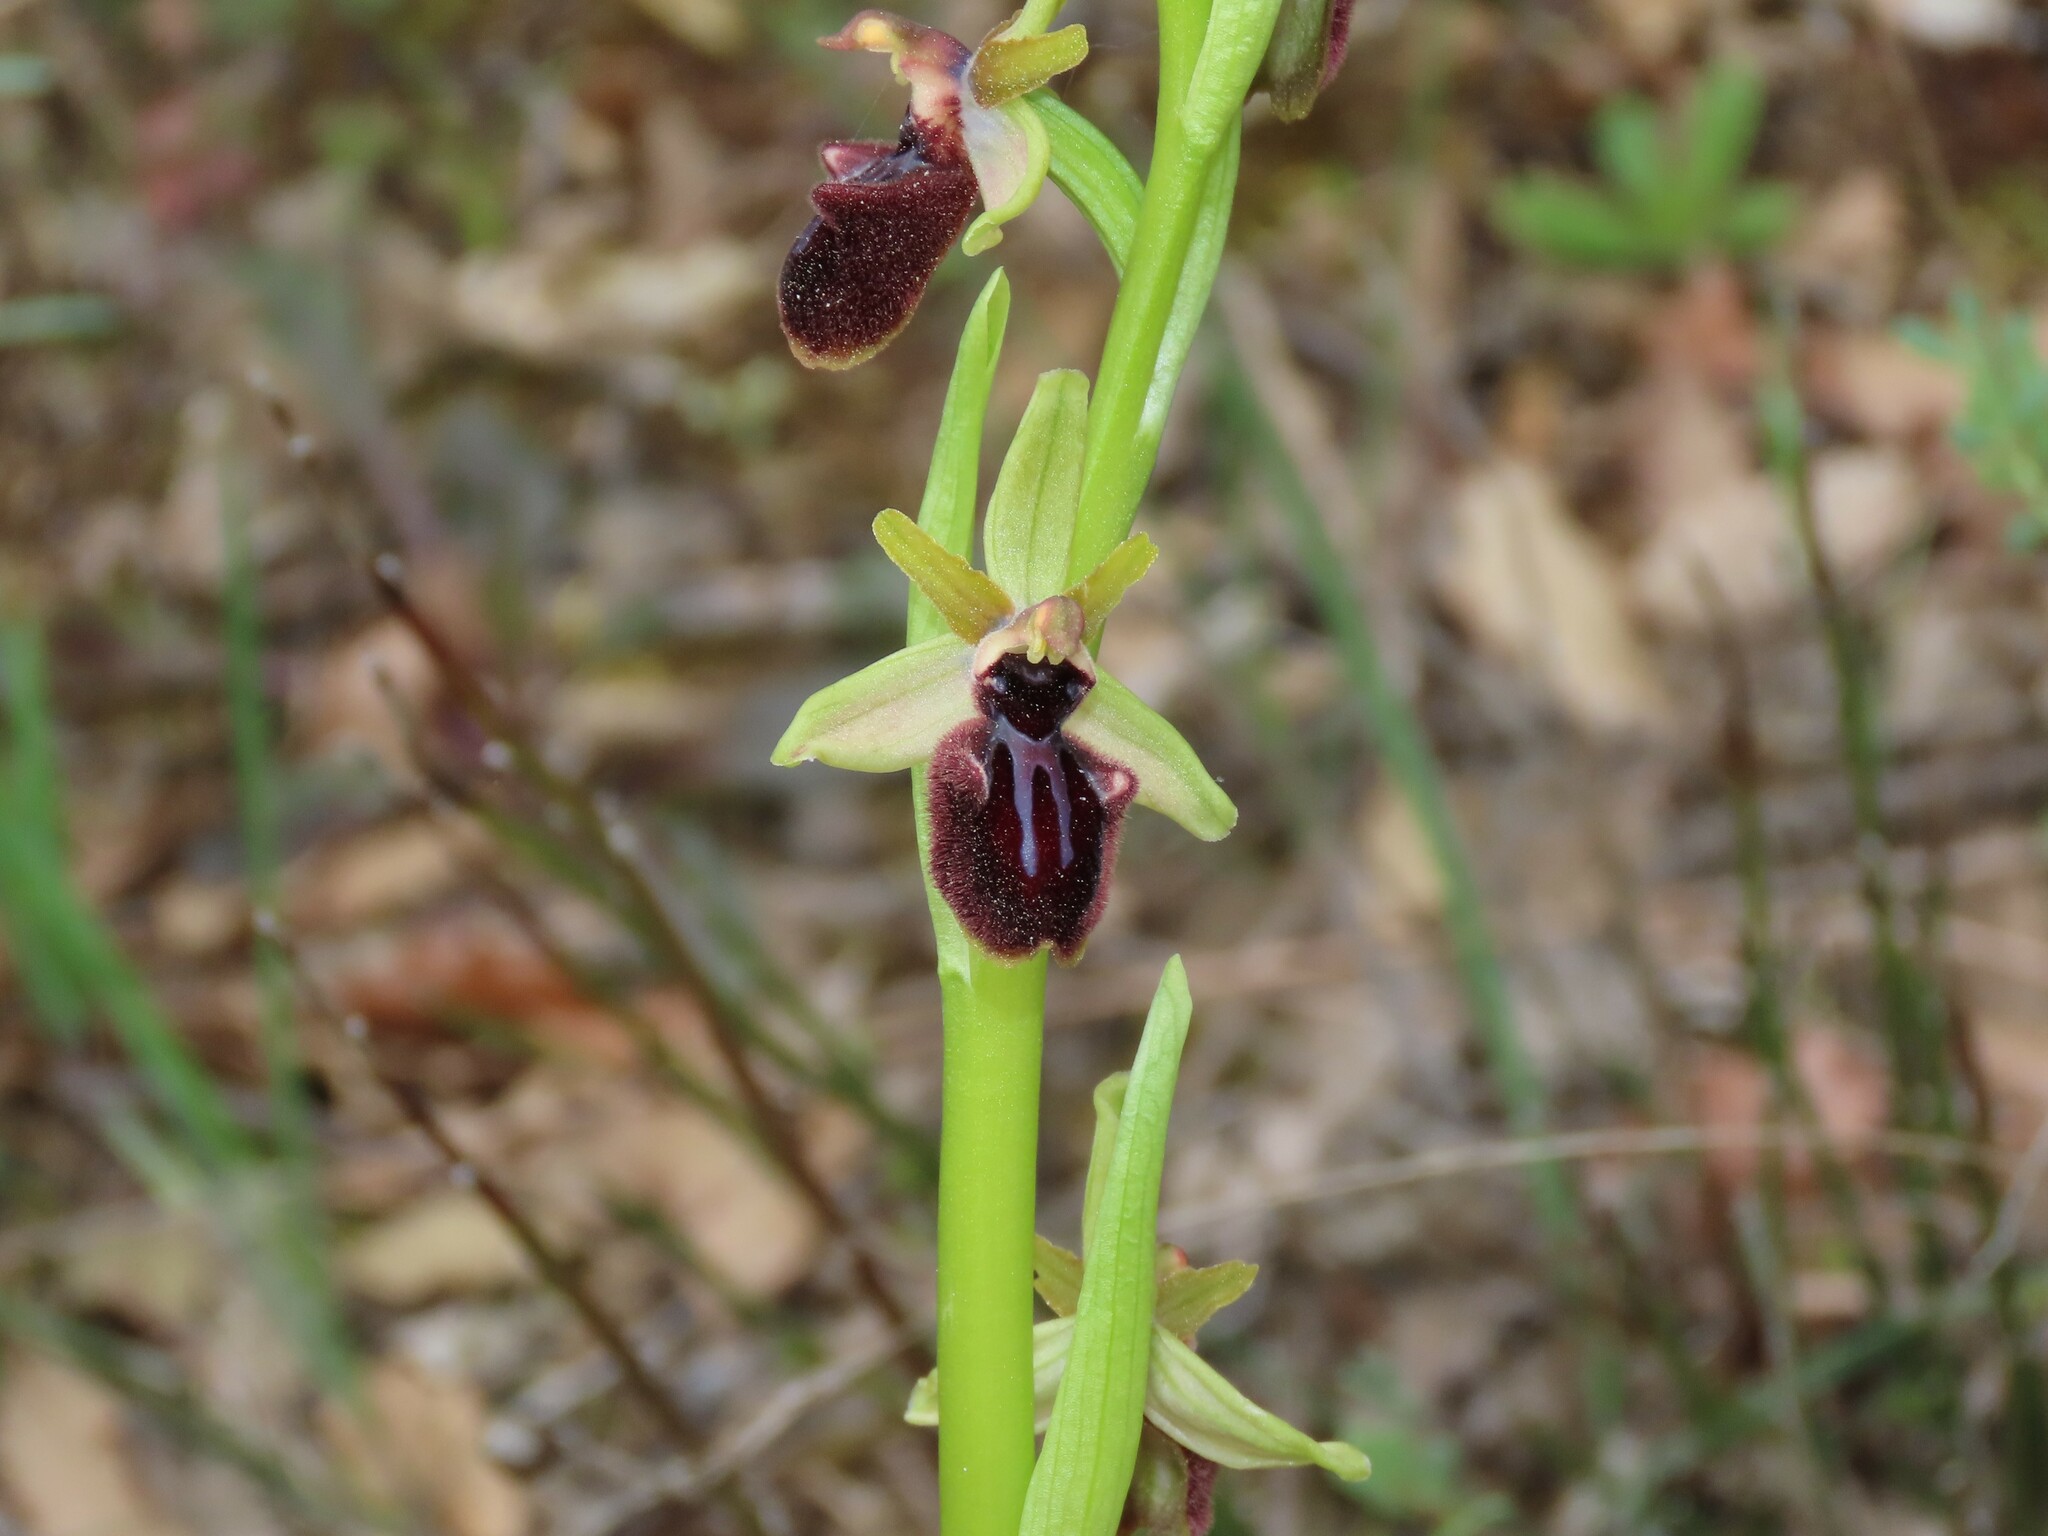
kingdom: Plantae
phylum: Tracheophyta
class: Liliopsida
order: Asparagales
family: Orchidaceae
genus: Ophrys
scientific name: Ophrys sphegodes
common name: Early spider-orchid
